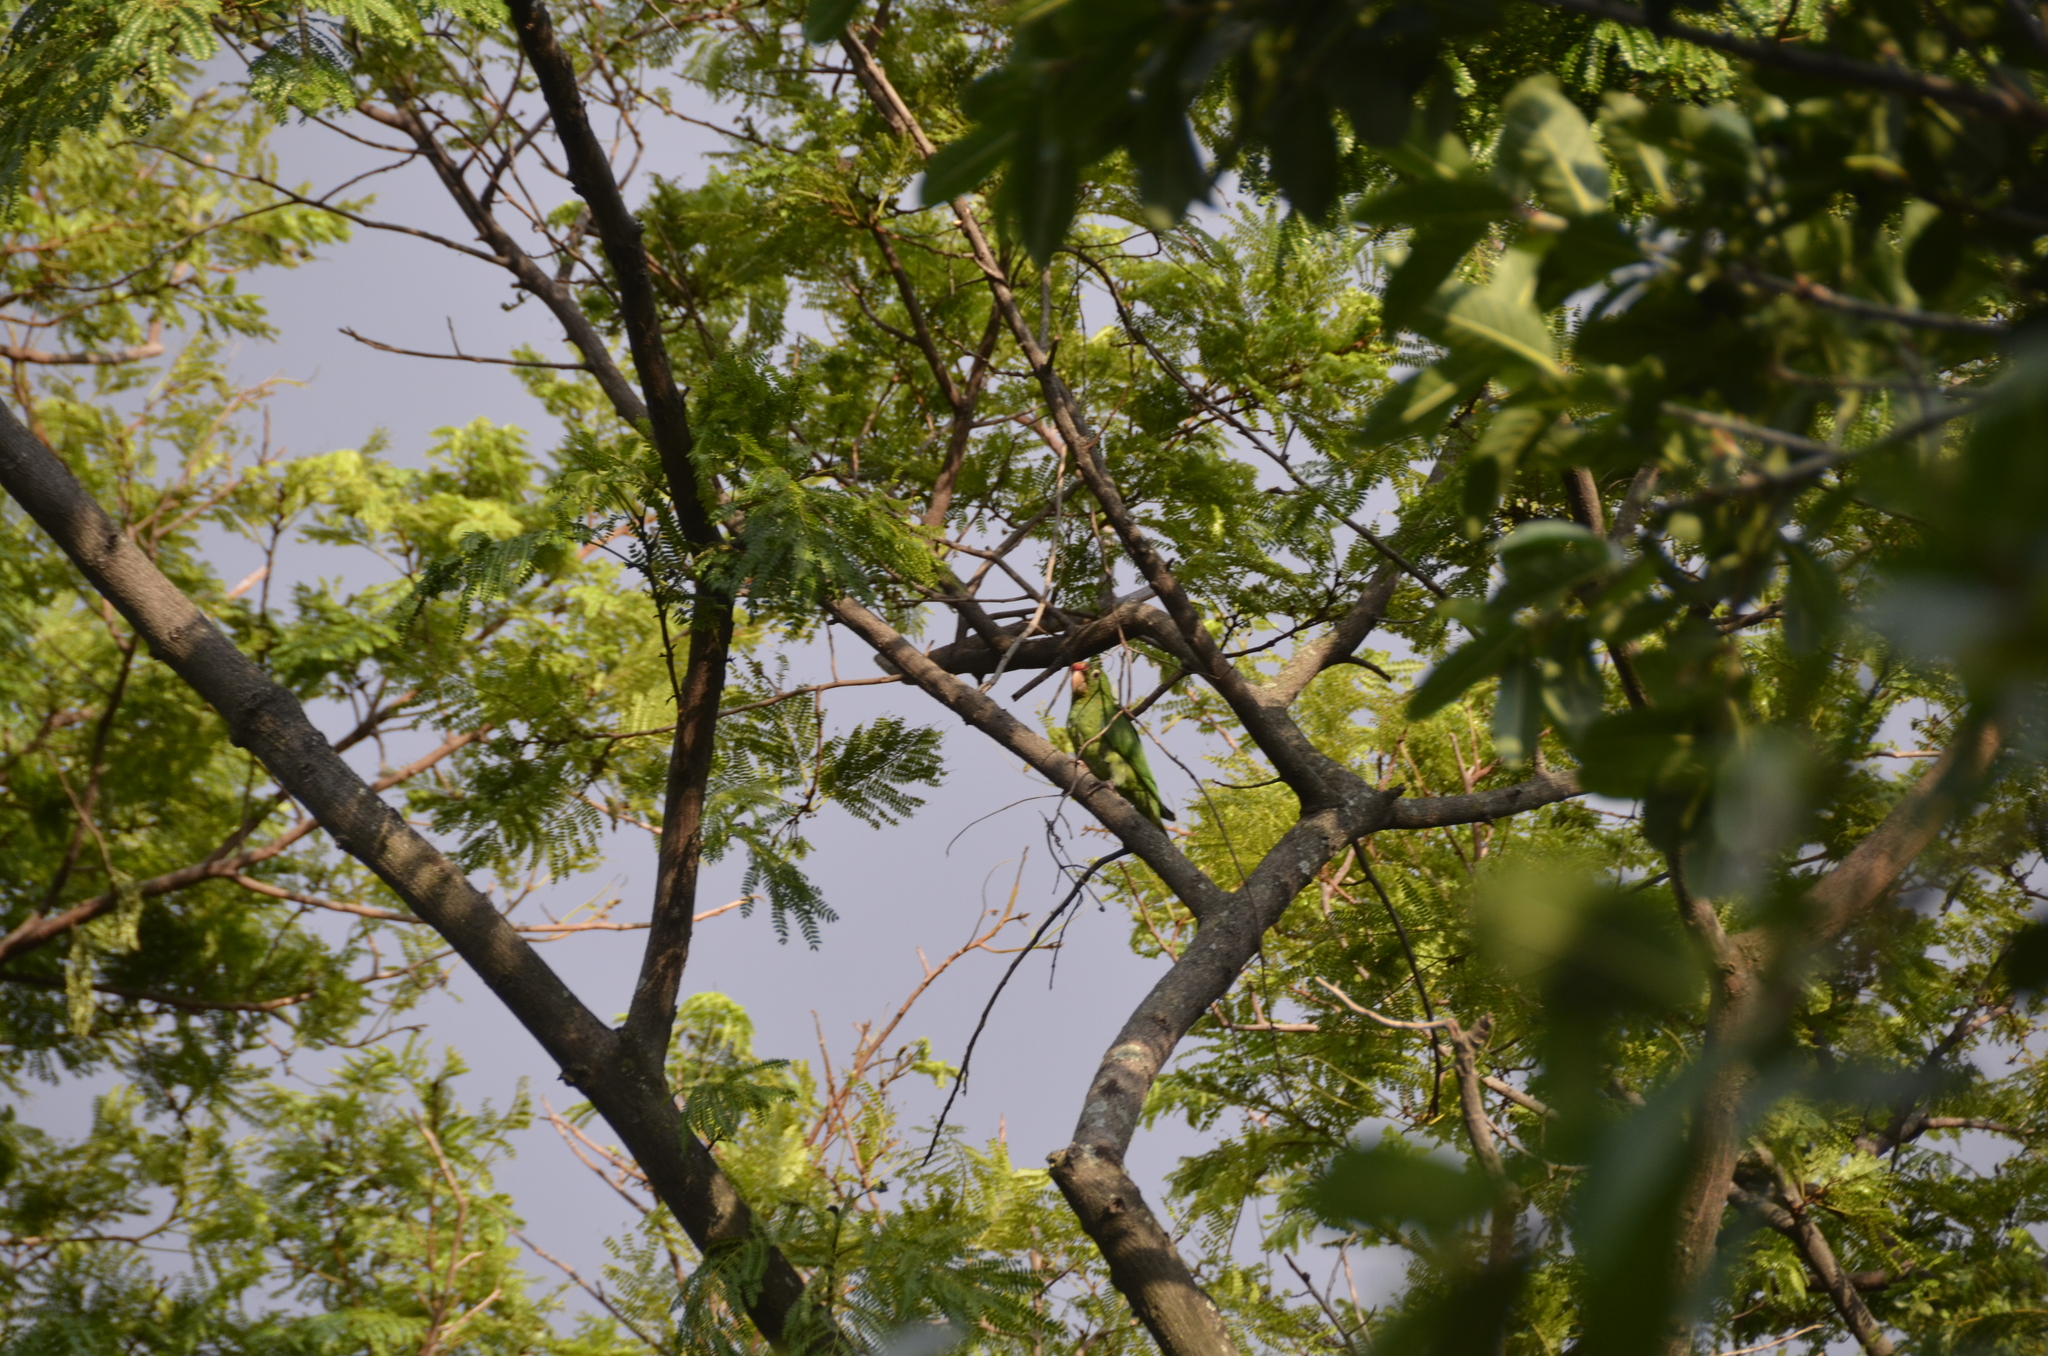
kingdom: Animalia
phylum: Chordata
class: Aves
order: Psittaciformes
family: Psittacidae
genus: Aratinga
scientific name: Aratinga finschi
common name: Crimson-fronted parakeet
